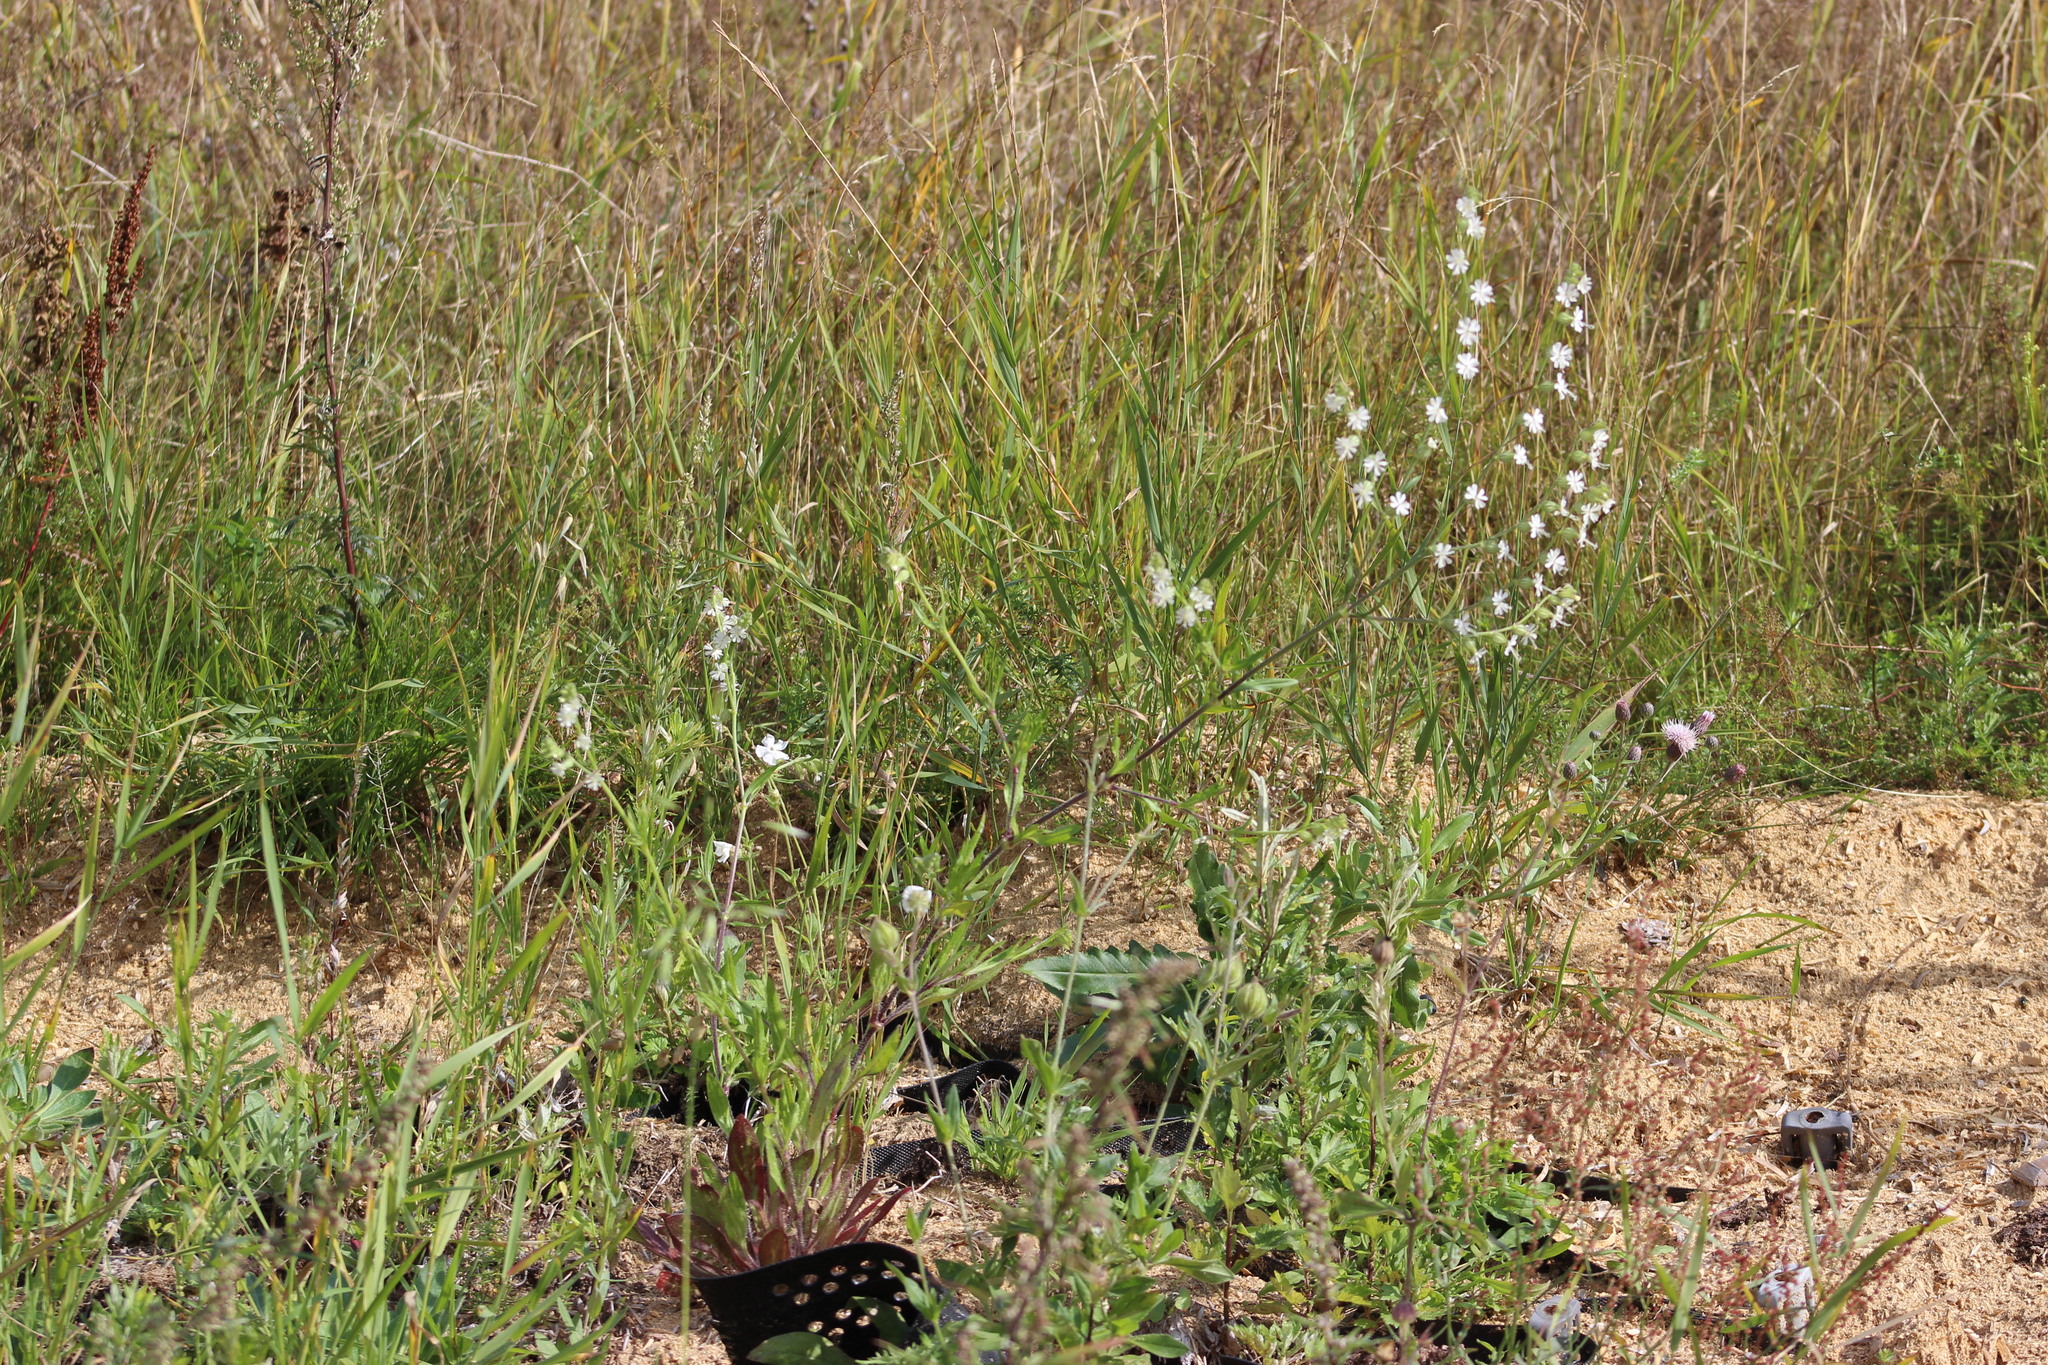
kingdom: Plantae
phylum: Tracheophyta
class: Magnoliopsida
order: Caryophyllales
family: Caryophyllaceae
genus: Silene
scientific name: Silene dichotoma
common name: Forked catchfly
